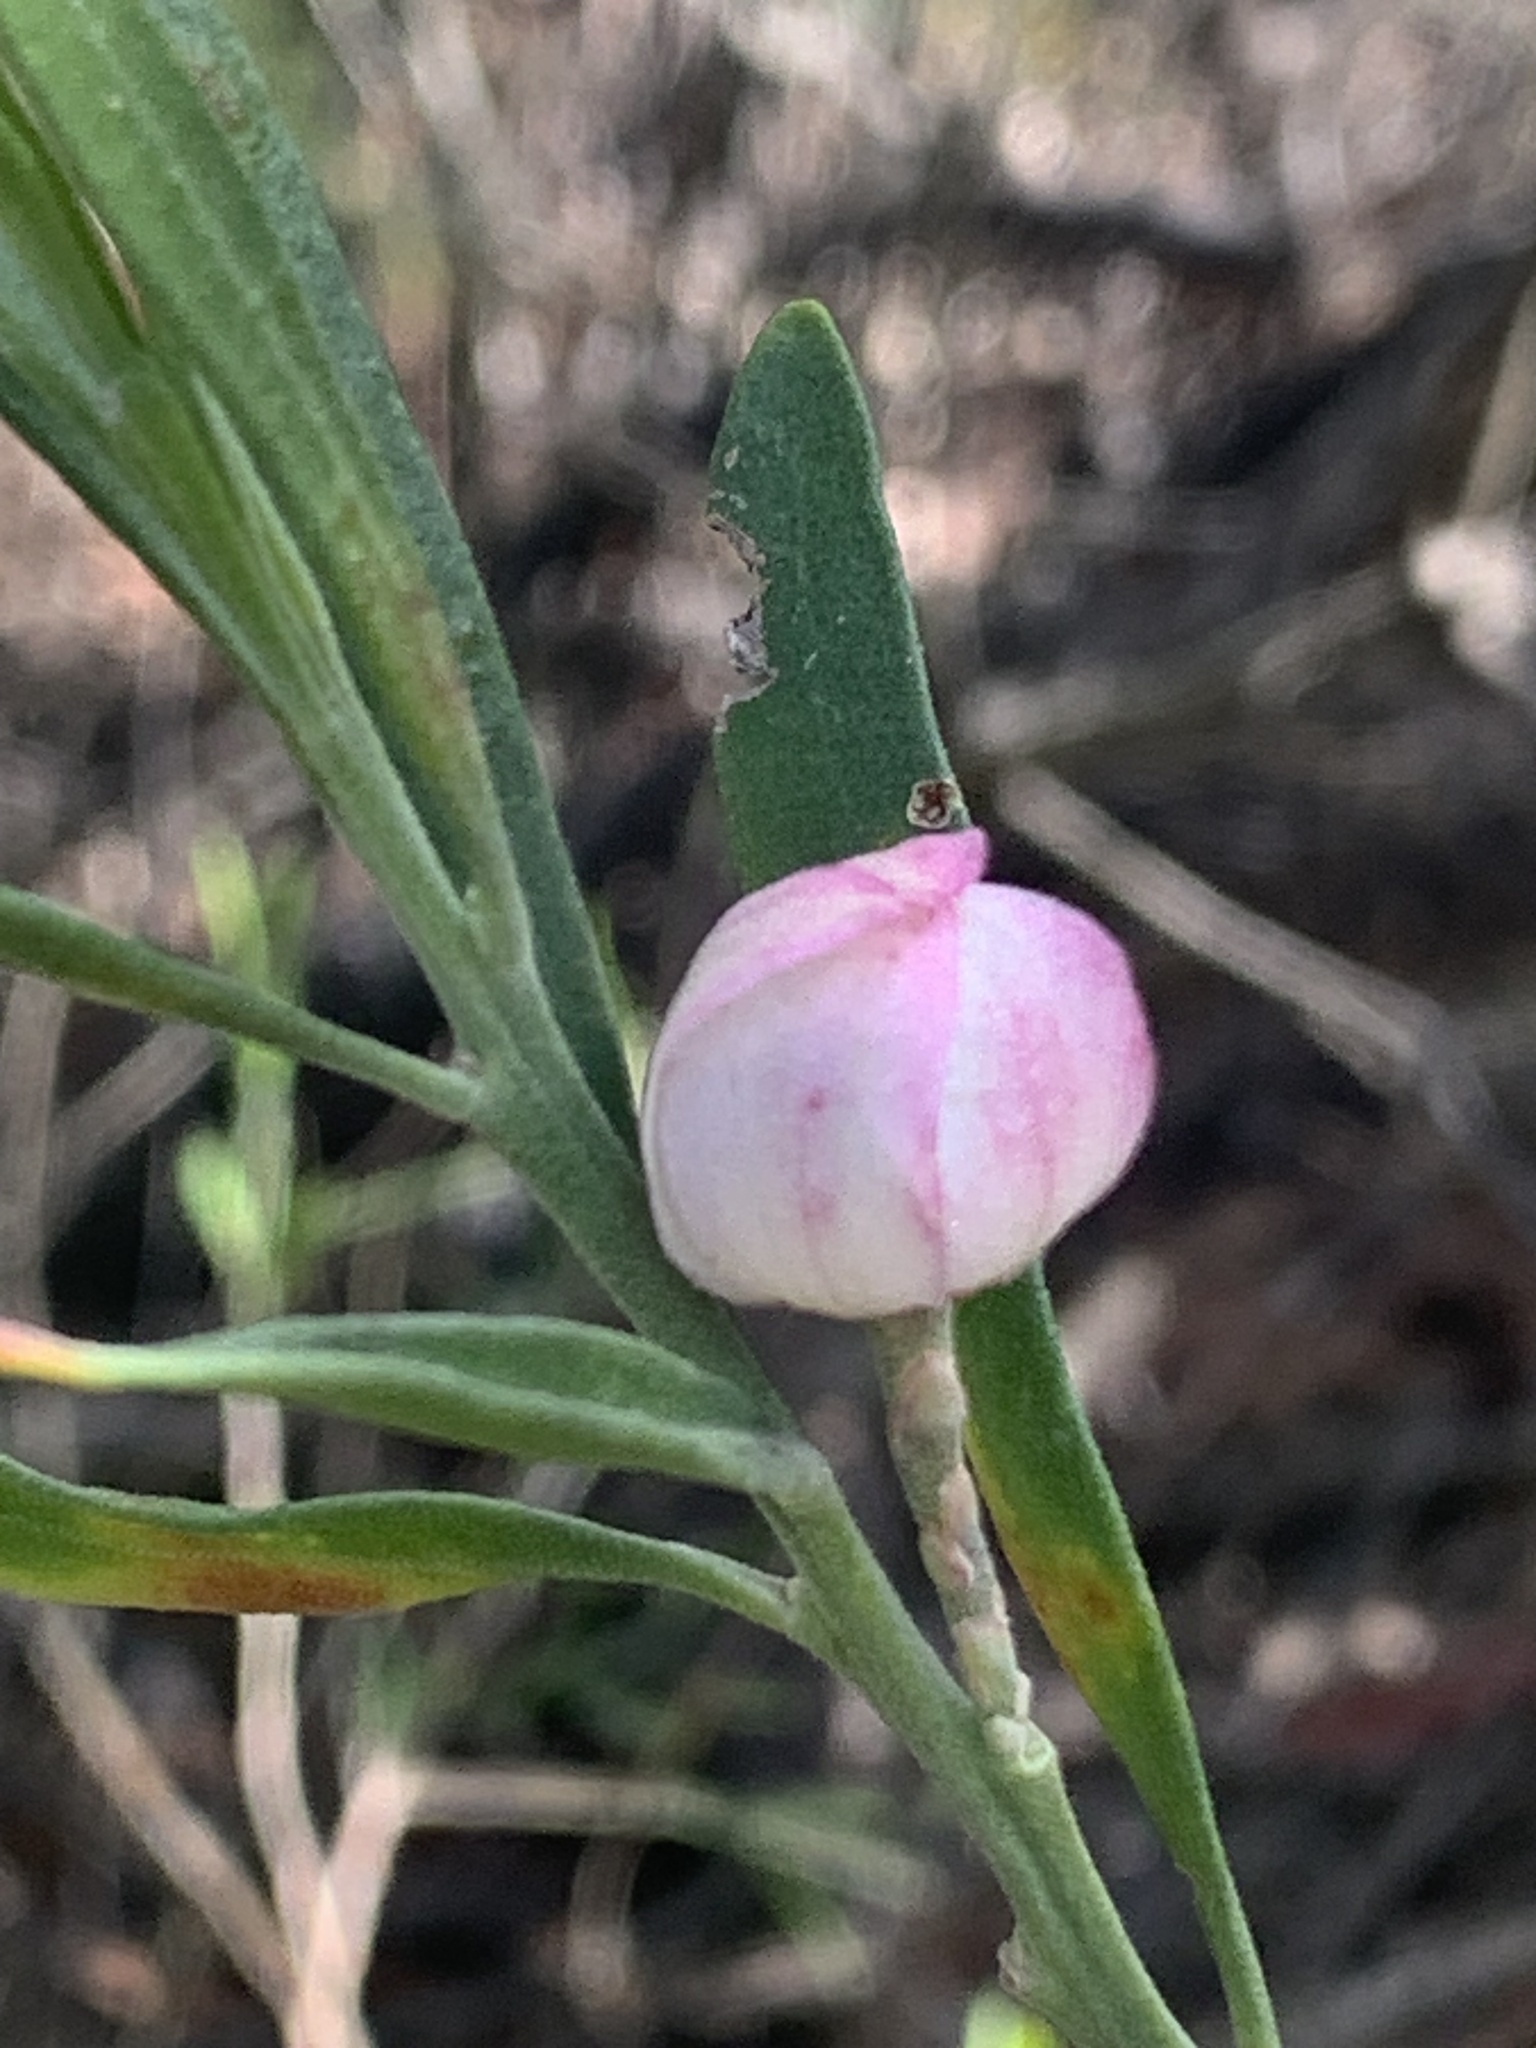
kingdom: Plantae
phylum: Tracheophyta
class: Magnoliopsida
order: Sapindales
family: Rutaceae
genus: Eriostemon
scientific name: Eriostemon australasius
